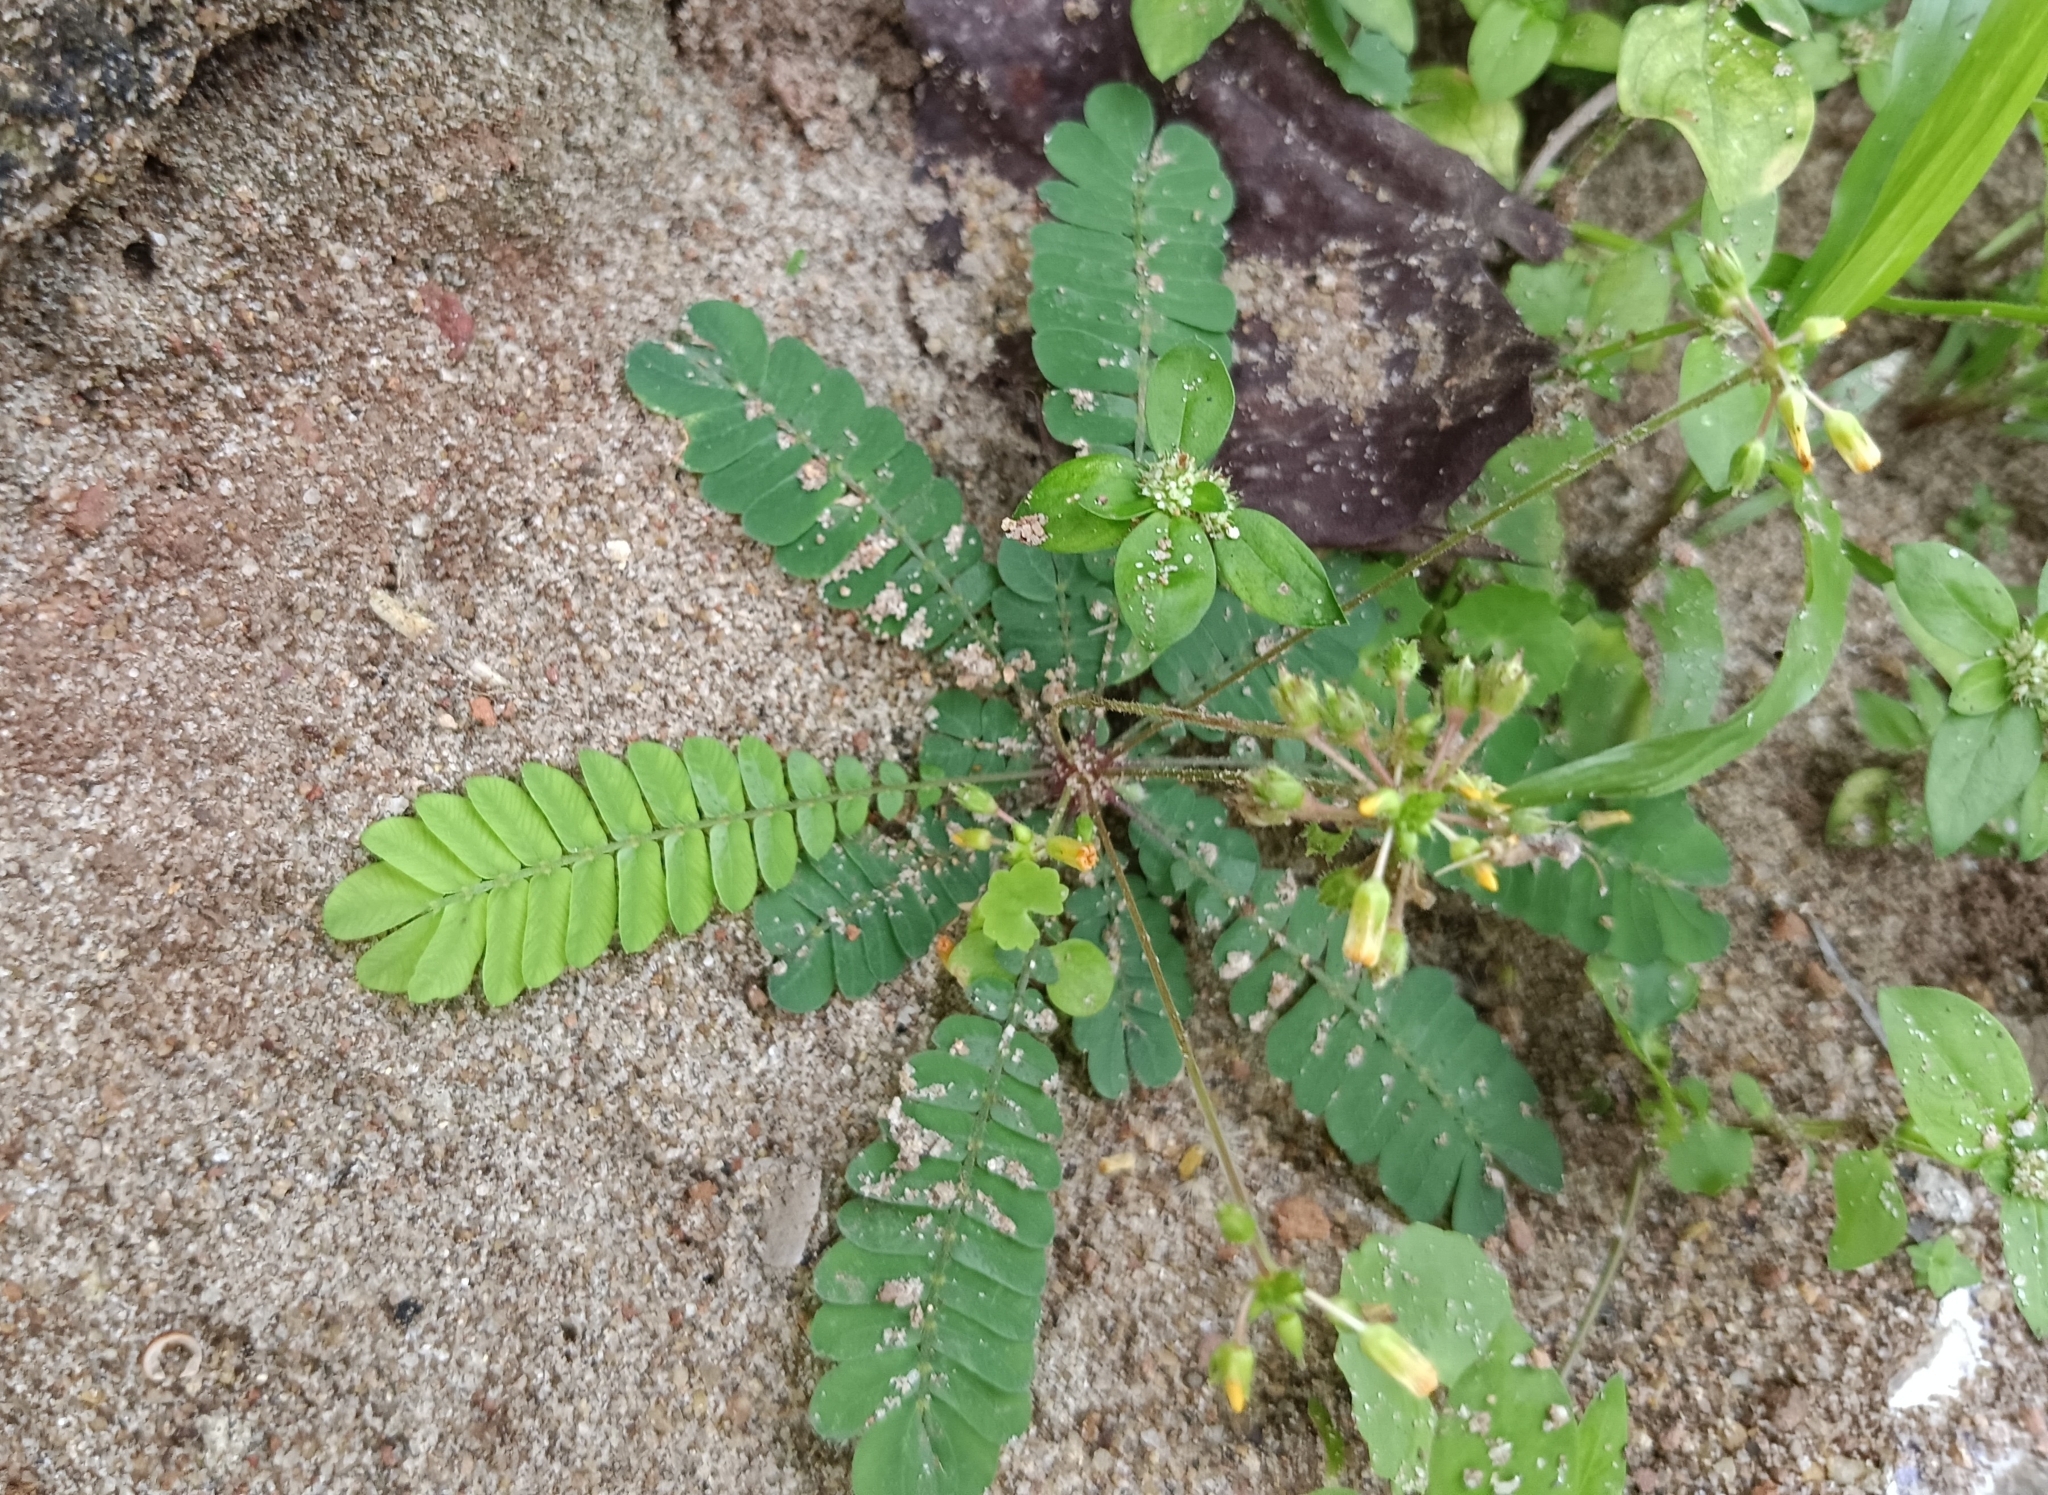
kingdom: Plantae
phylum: Tracheophyta
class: Magnoliopsida
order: Oxalidales
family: Oxalidaceae
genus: Biophytum
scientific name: Biophytum sensitivum
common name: Lifeplant
